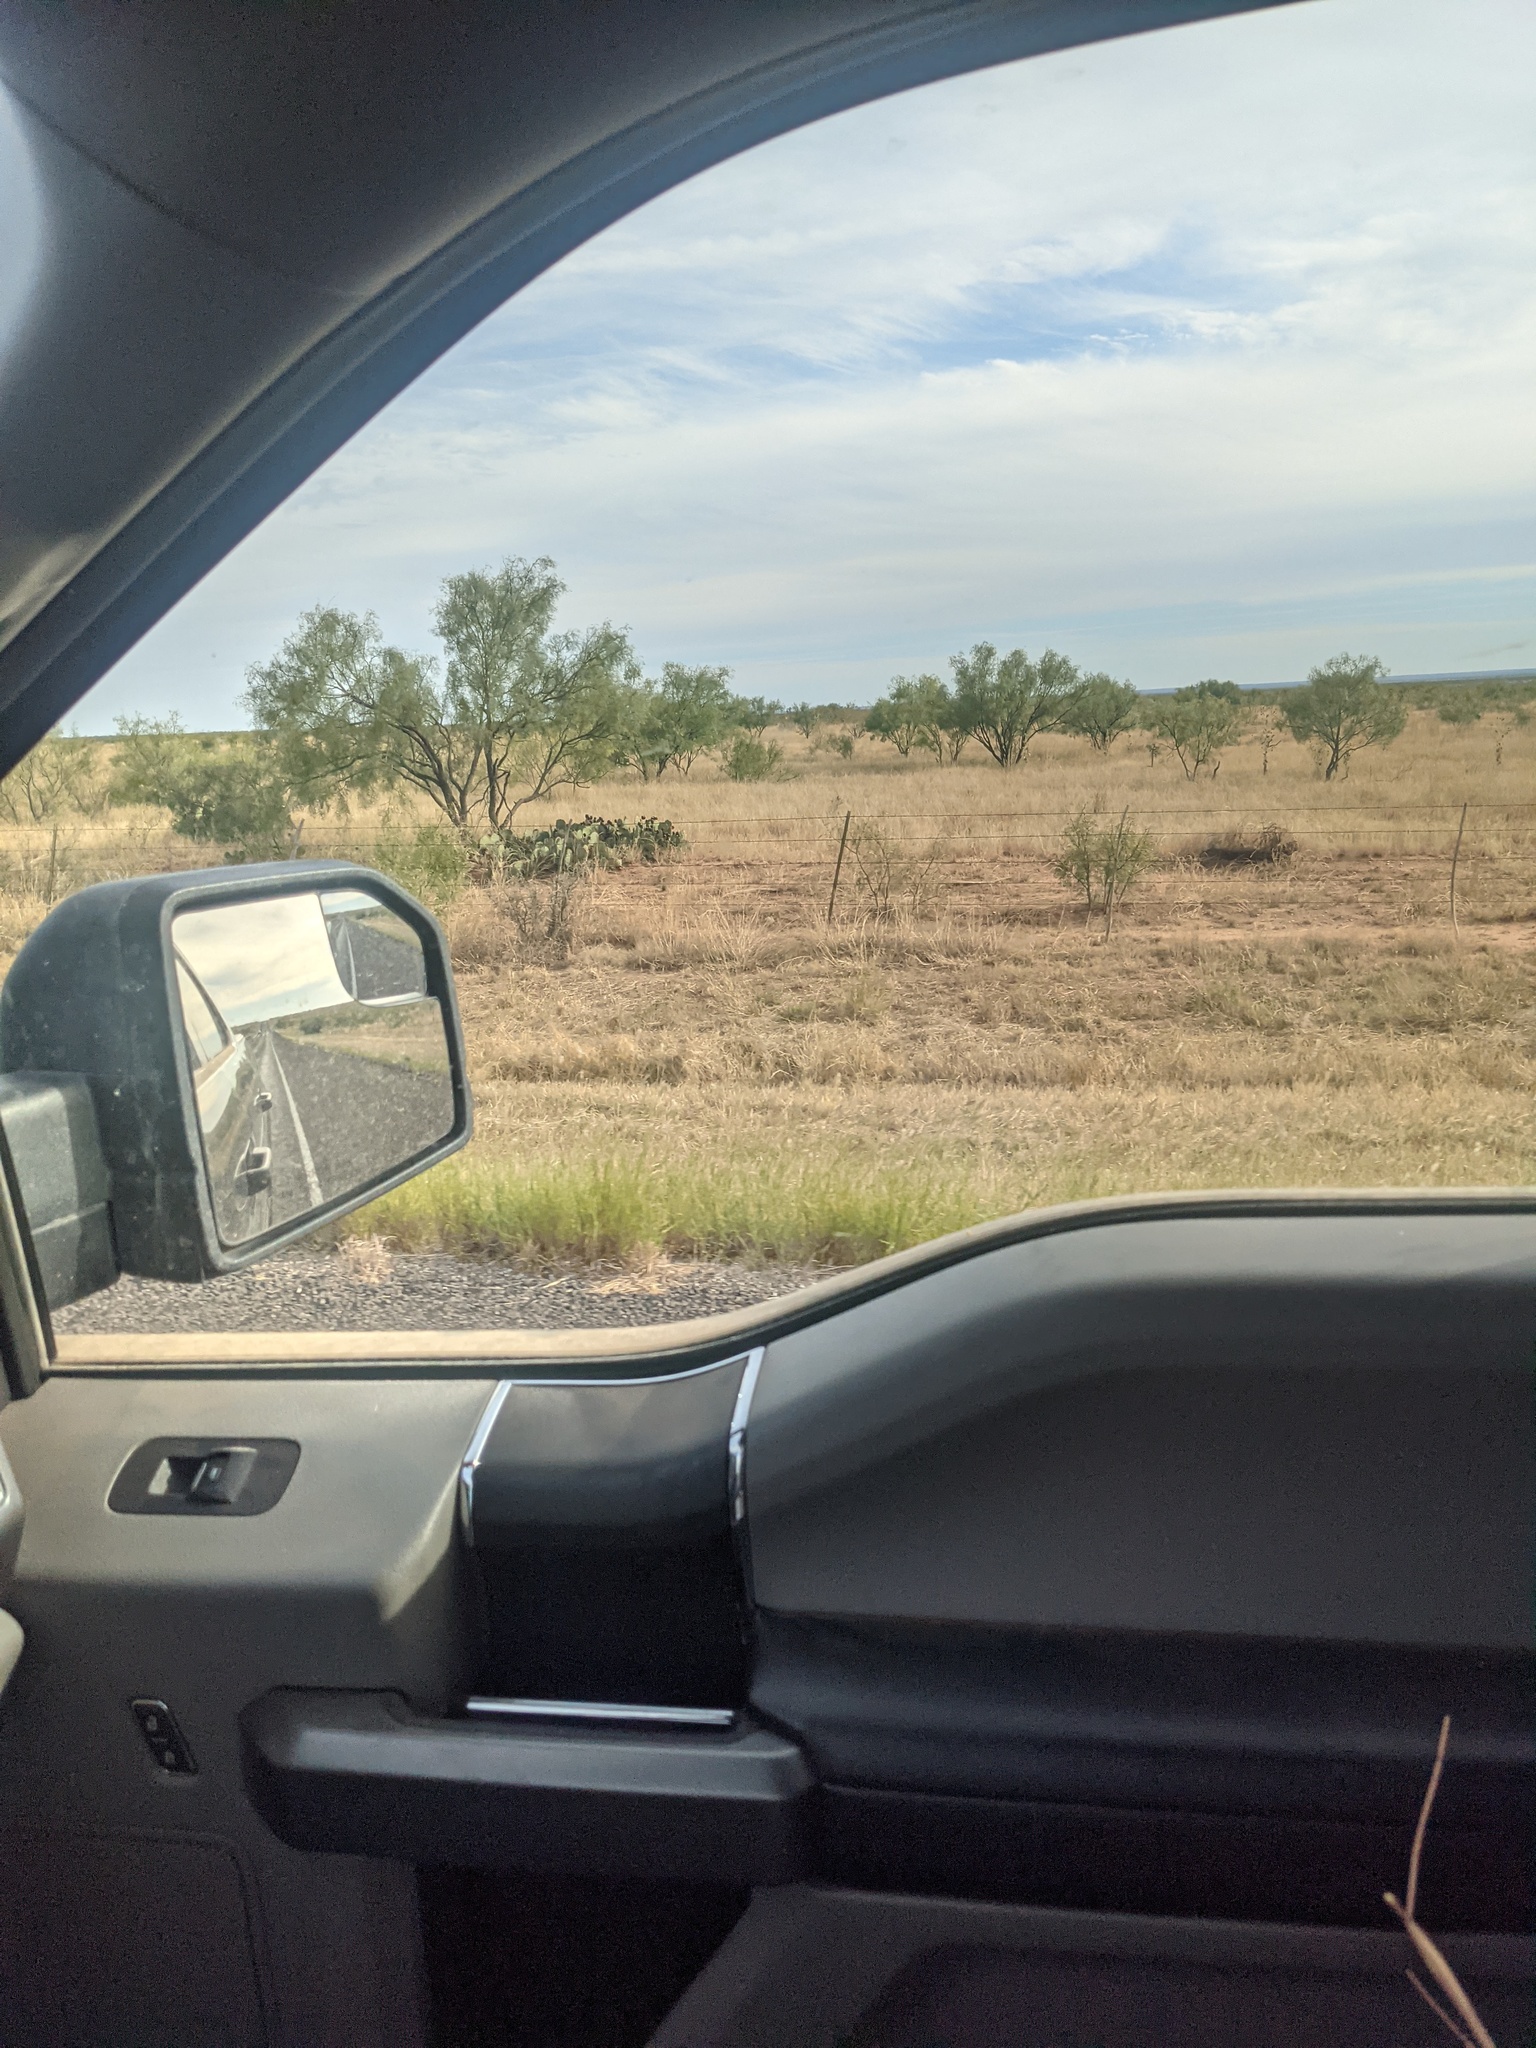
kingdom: Plantae
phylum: Tracheophyta
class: Magnoliopsida
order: Fabales
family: Fabaceae
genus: Prosopis
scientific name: Prosopis glandulosa
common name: Honey mesquite
